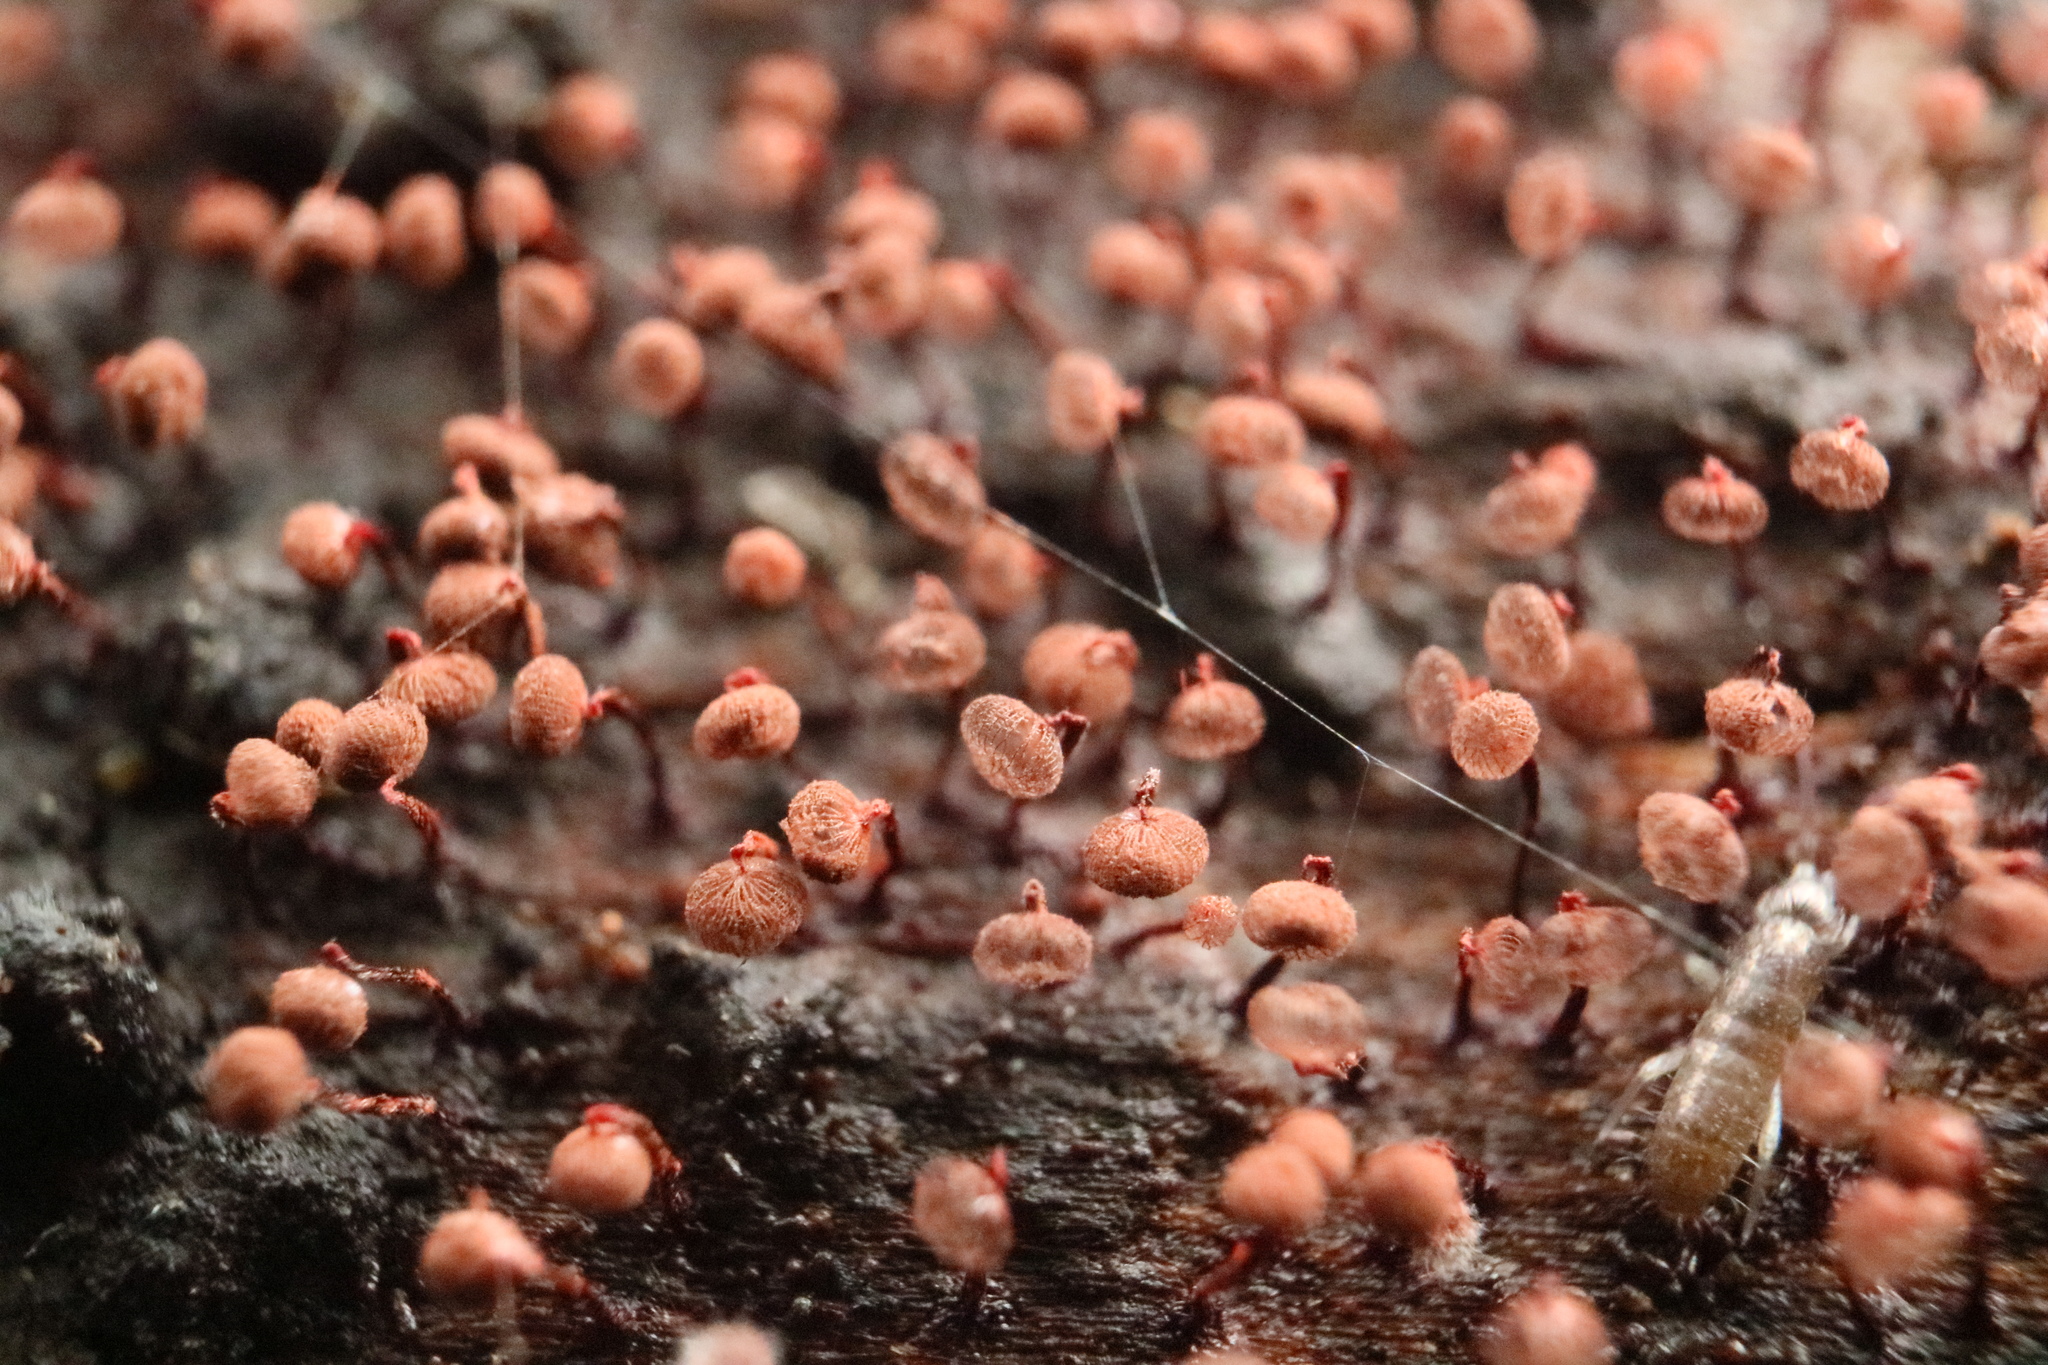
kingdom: Protozoa
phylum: Mycetozoa
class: Myxomycetes
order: Cribrariales
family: Cribrariaceae
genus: Cribraria
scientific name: Cribraria cancellata
